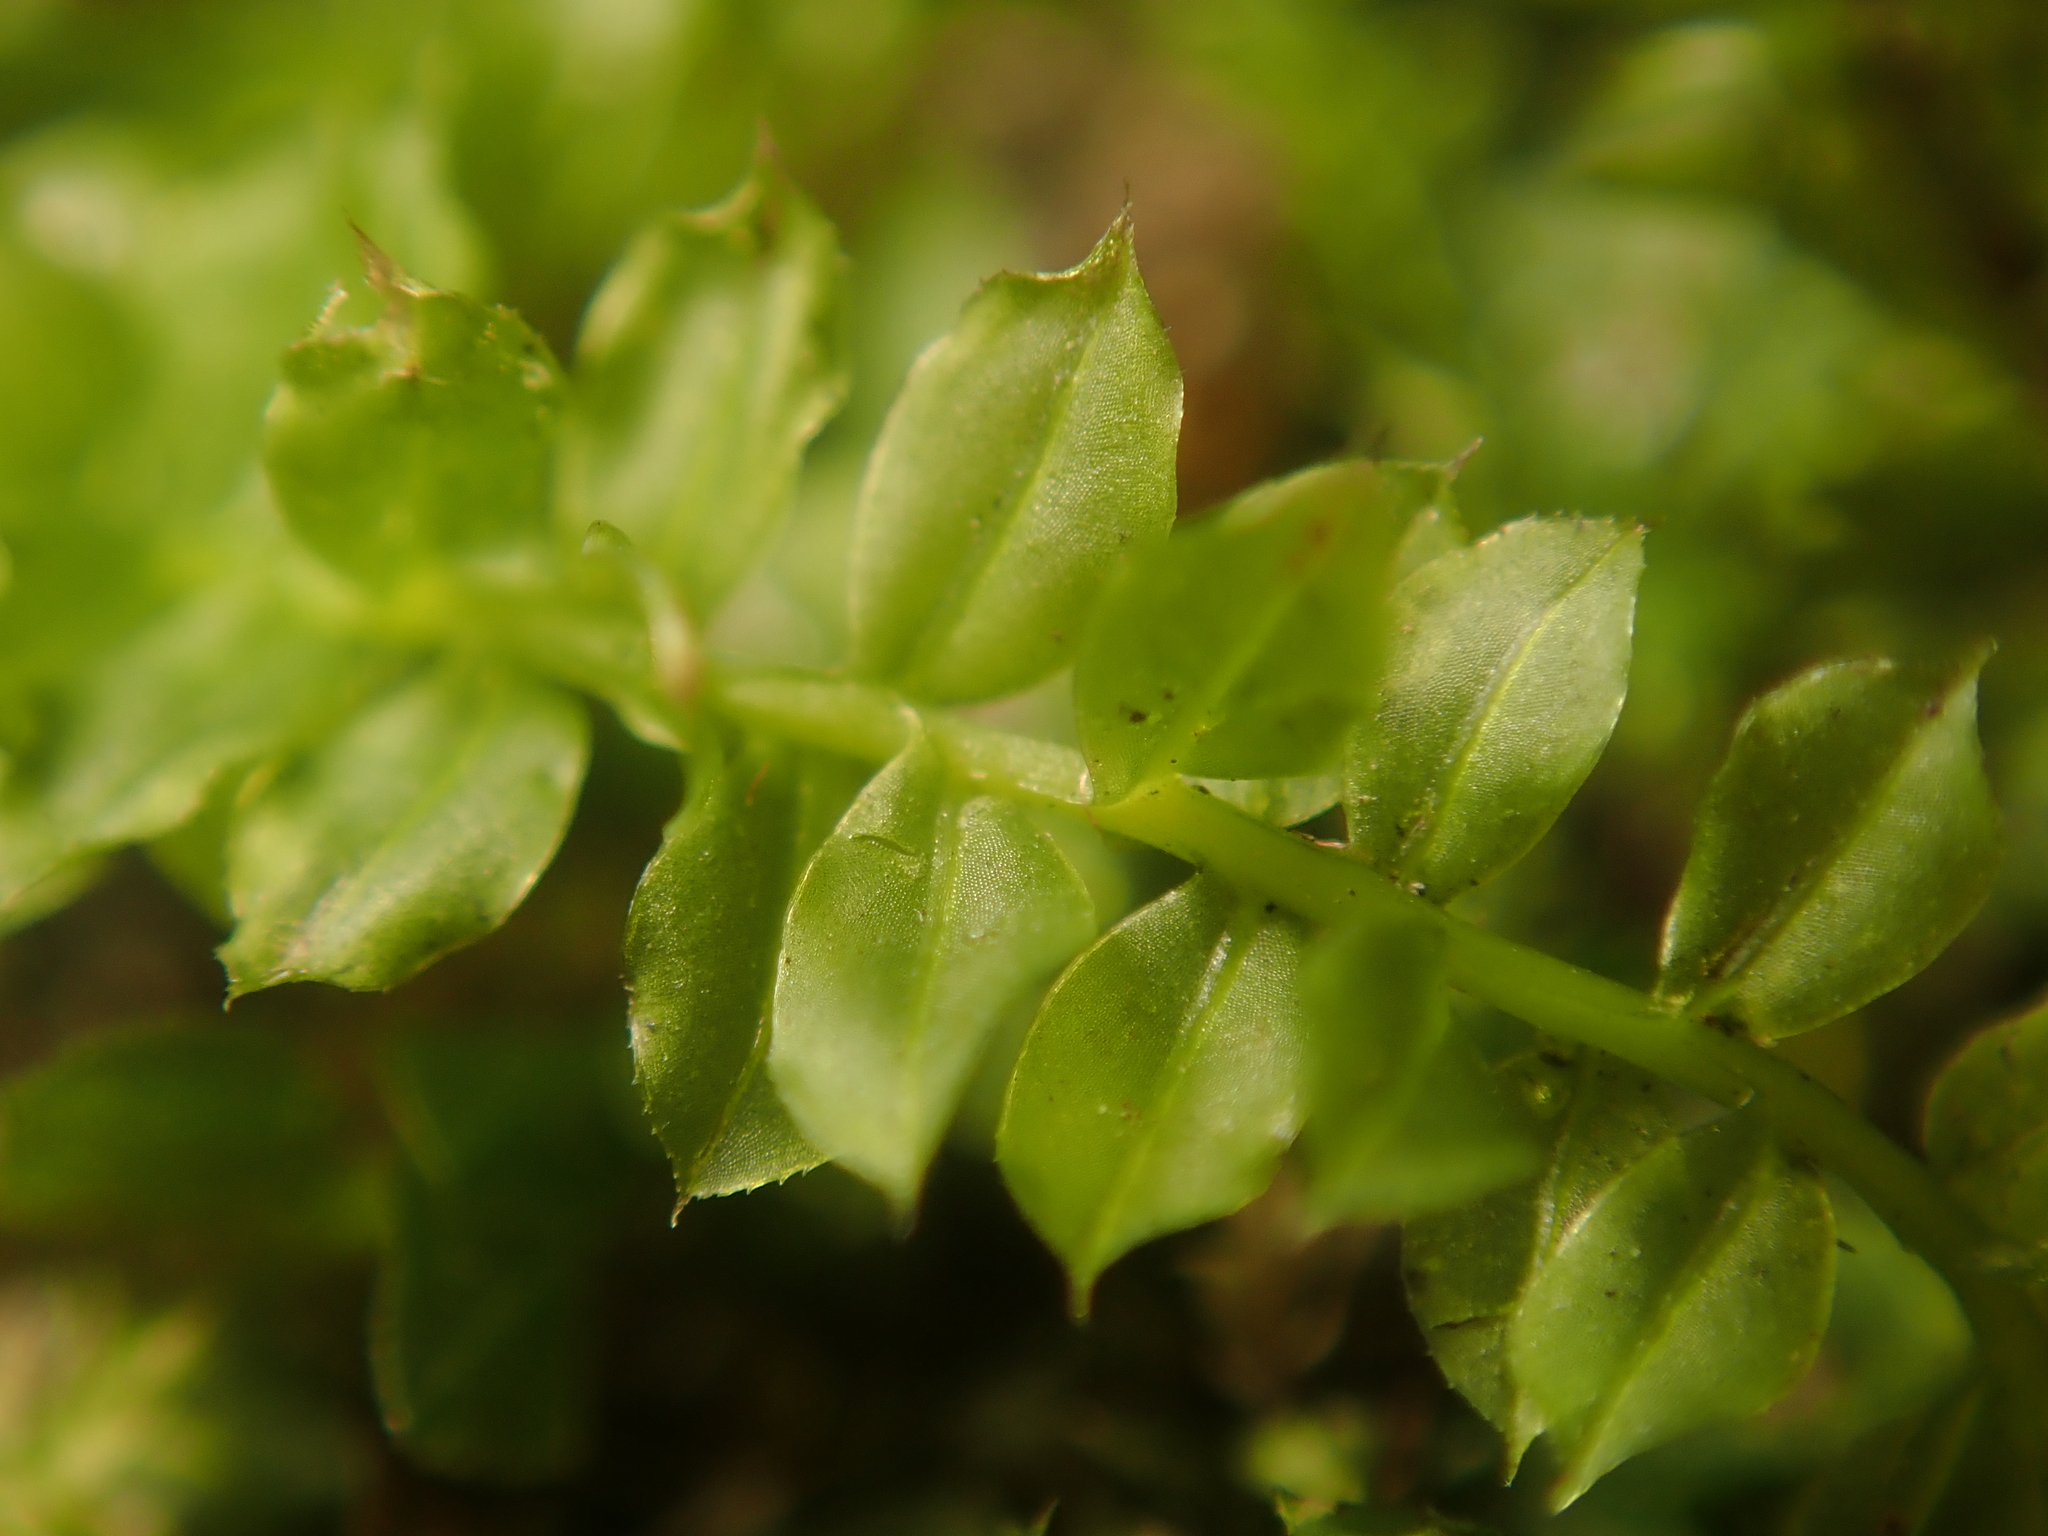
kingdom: Plantae
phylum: Bryophyta
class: Bryopsida
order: Bryales
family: Mniaceae
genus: Plagiomnium
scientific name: Plagiomnium cuspidatum
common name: Woodsy leafy moss
